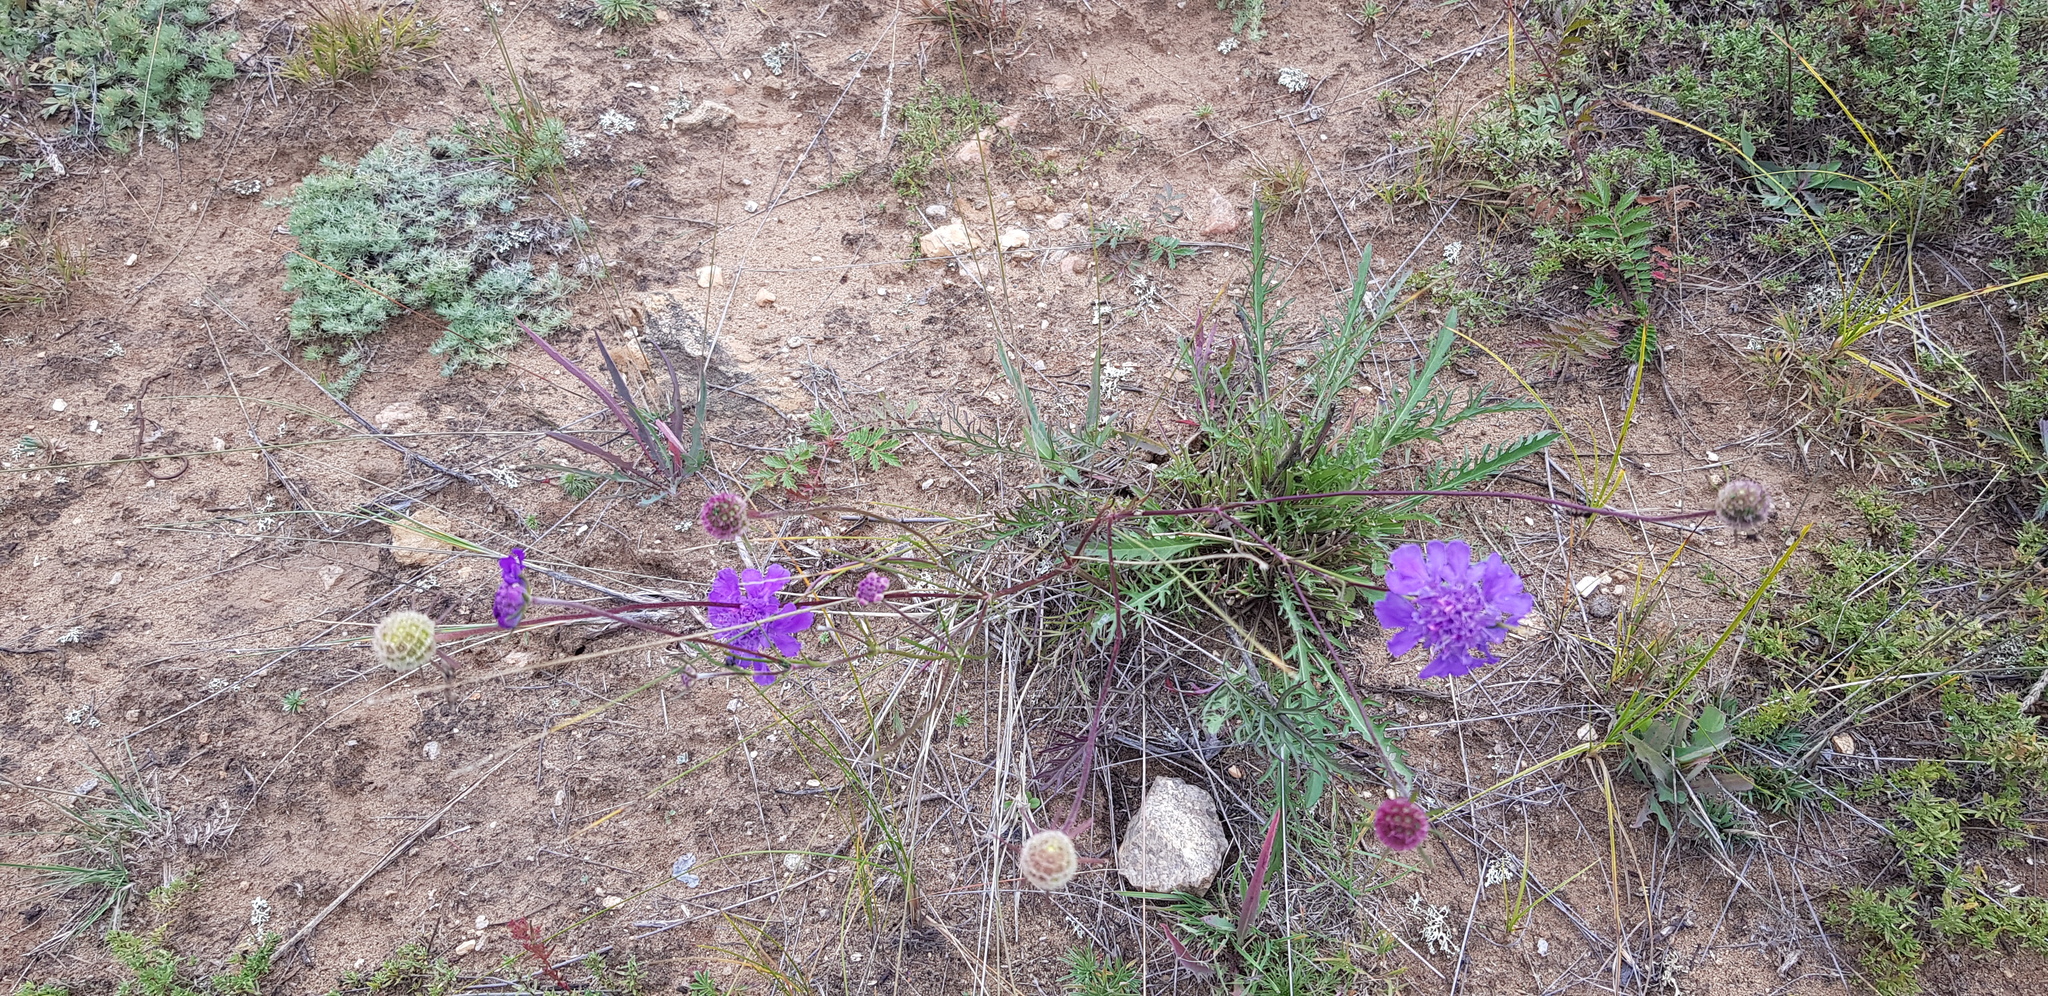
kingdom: Plantae
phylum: Tracheophyta
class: Magnoliopsida
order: Dipsacales
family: Caprifoliaceae
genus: Scabiosa
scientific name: Scabiosa comosa
